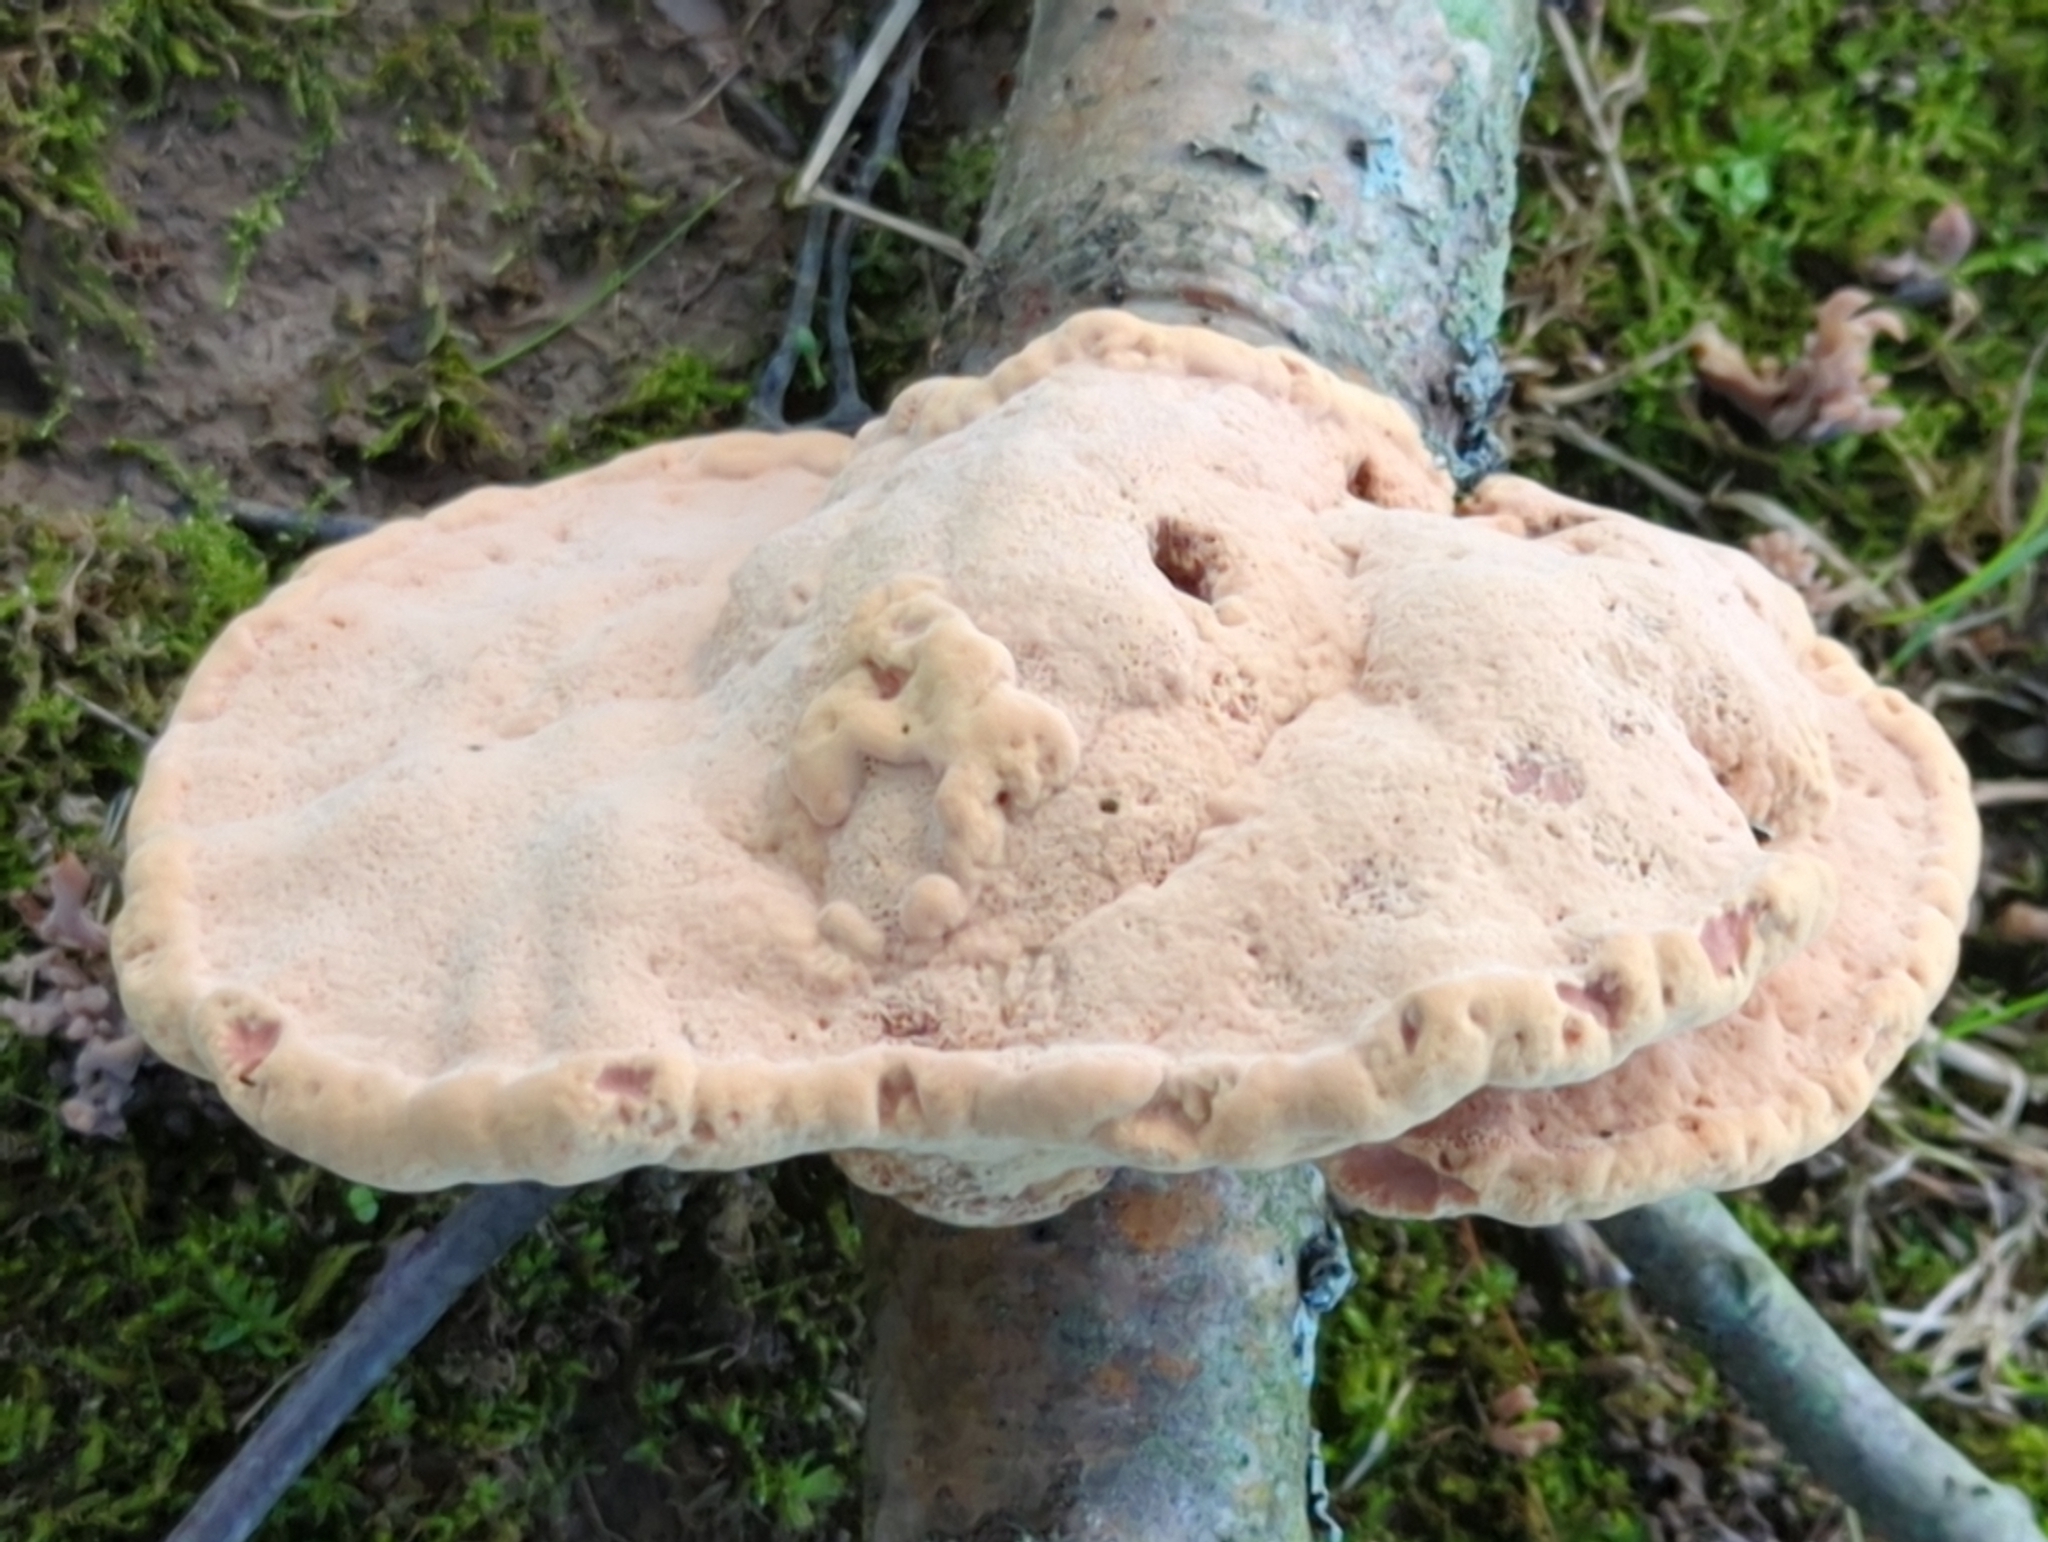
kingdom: Fungi
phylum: Basidiomycota
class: Agaricomycetes
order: Polyporales
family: Phanerochaetaceae
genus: Hapalopilus
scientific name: Hapalopilus rutilans
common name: Tender nesting polypore
